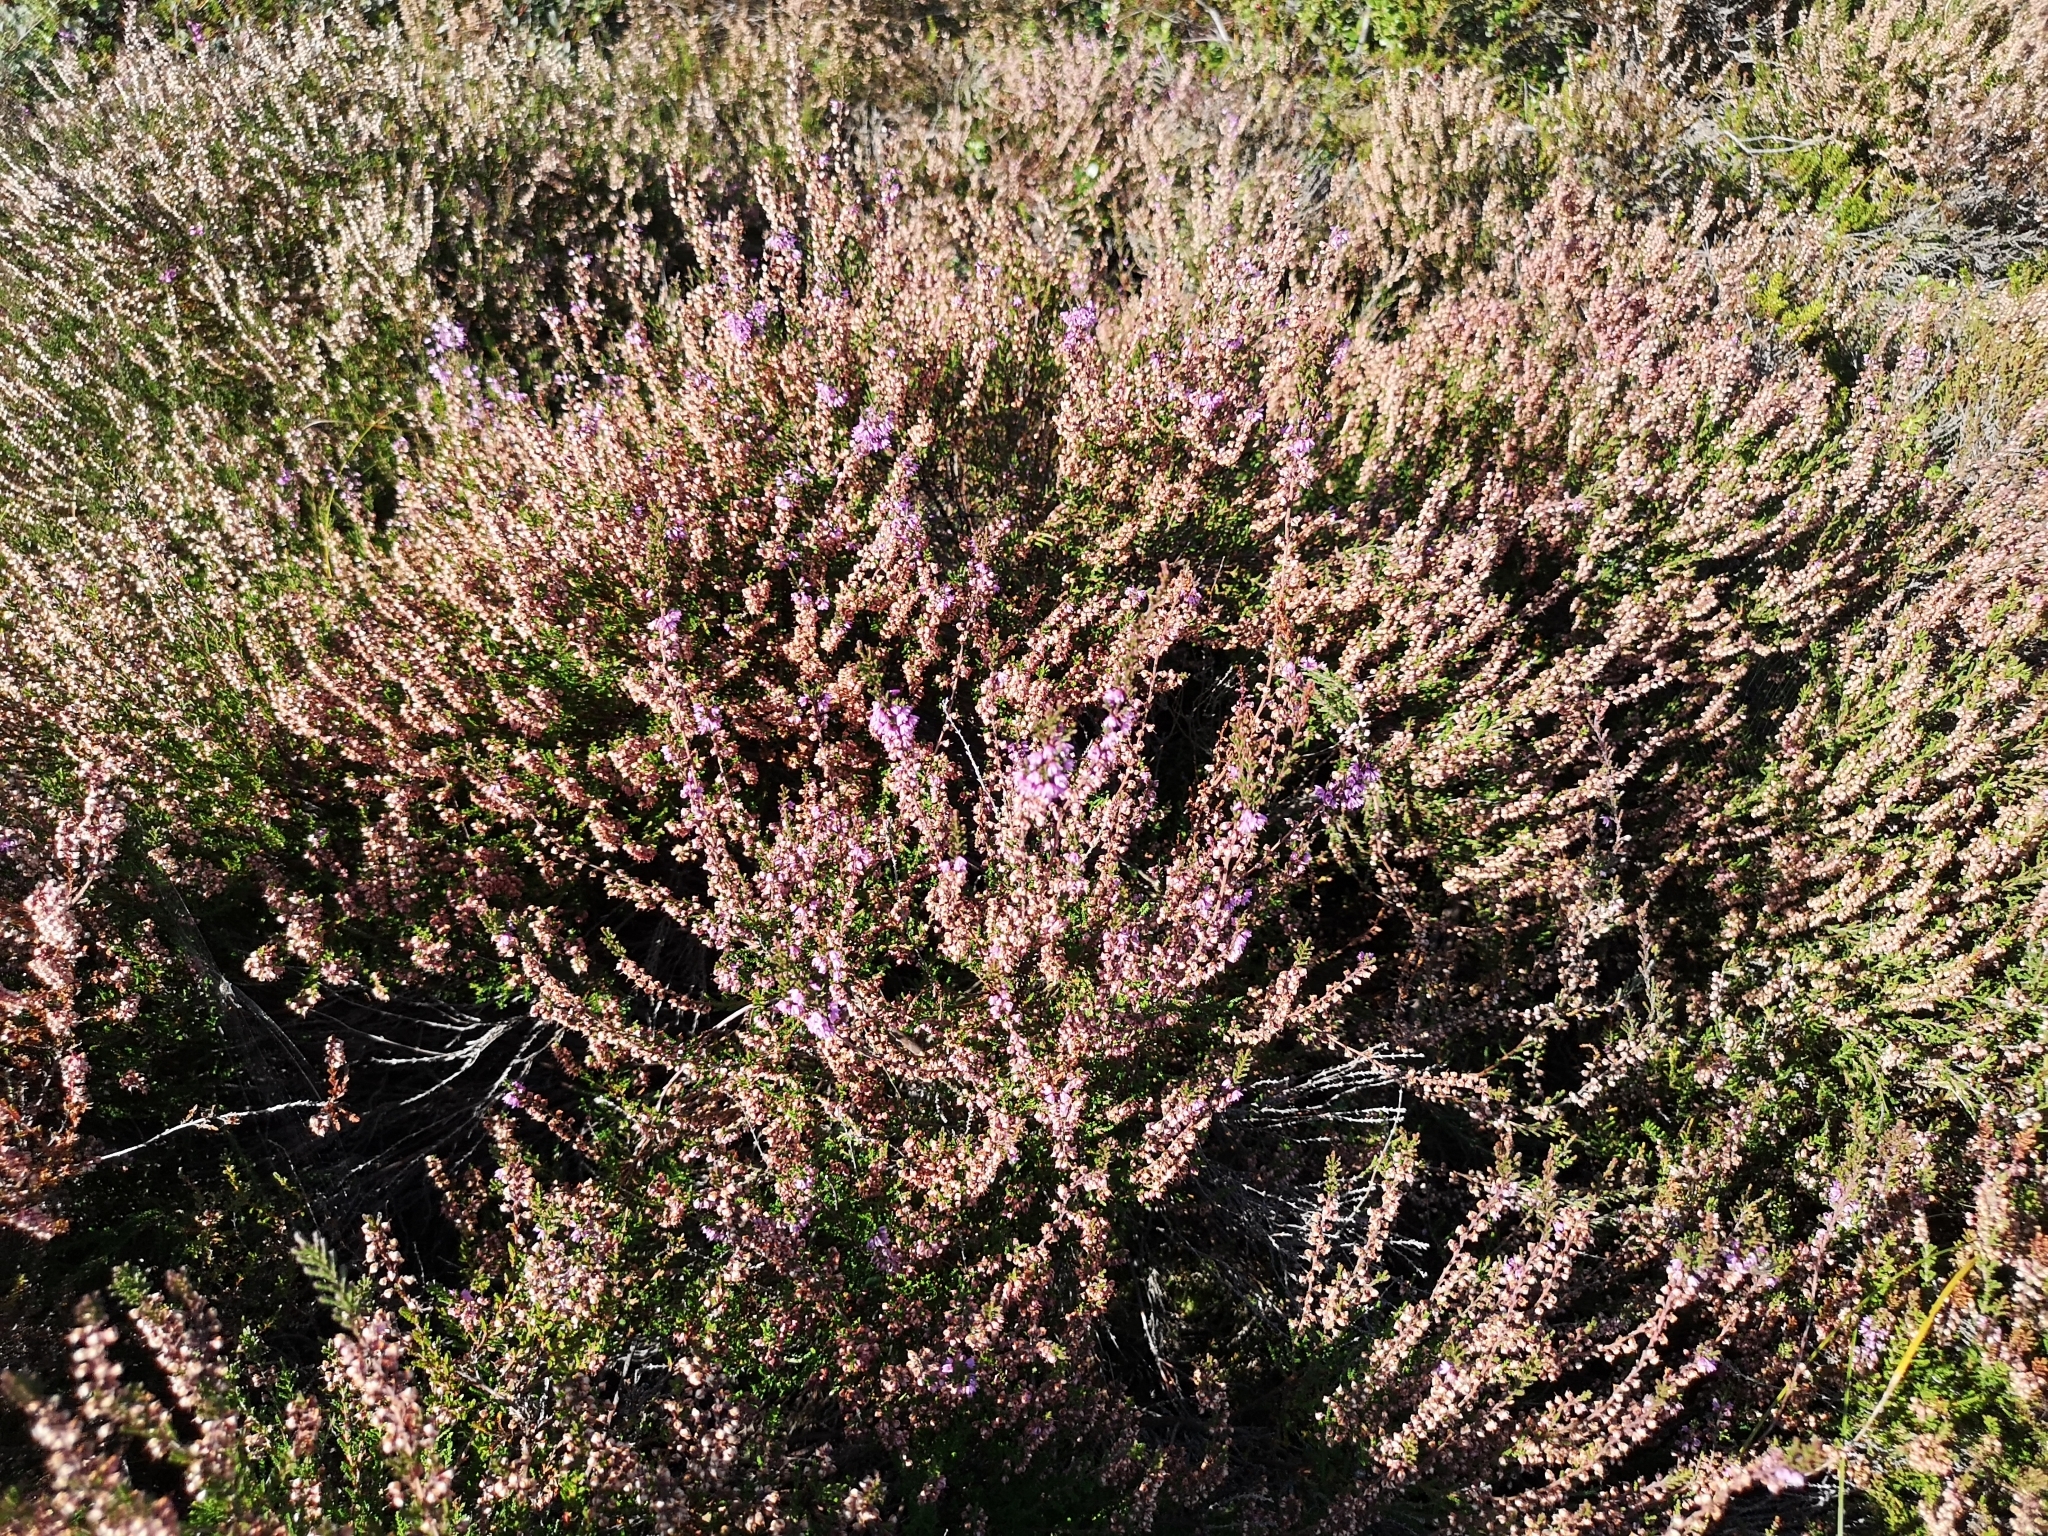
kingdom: Plantae
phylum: Tracheophyta
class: Magnoliopsida
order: Ericales
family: Ericaceae
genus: Calluna
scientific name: Calluna vulgaris
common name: Heather
